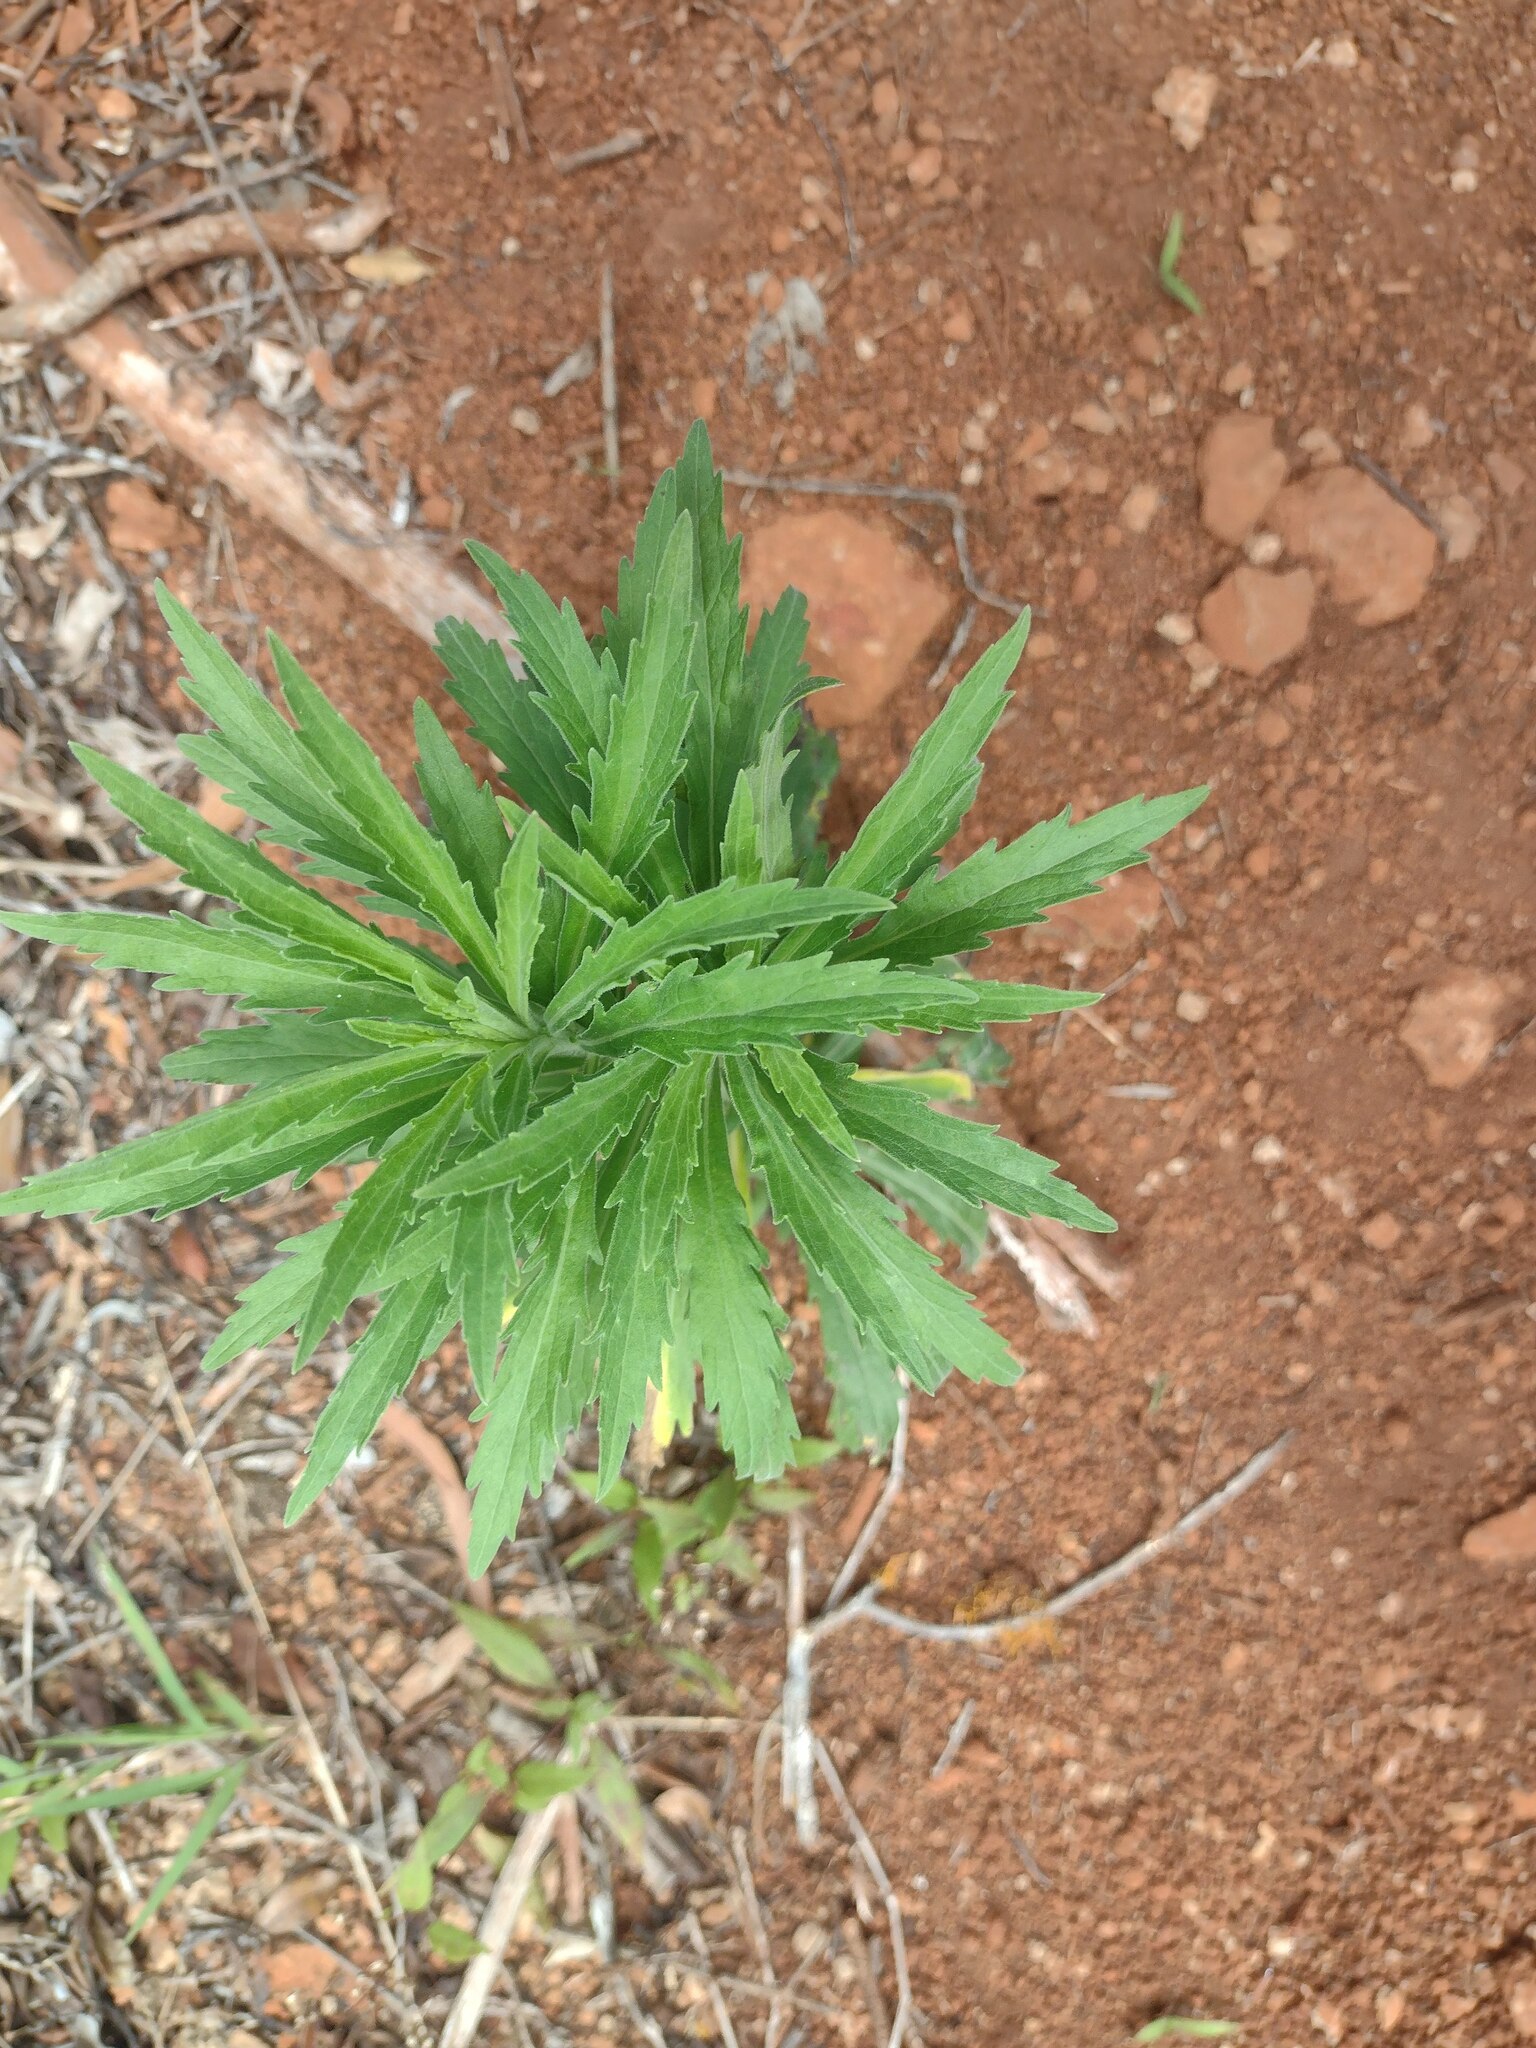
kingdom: Plantae
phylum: Tracheophyta
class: Magnoliopsida
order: Asterales
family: Asteraceae
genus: Erigeron
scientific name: Erigeron sumatrensis
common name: Daisy
